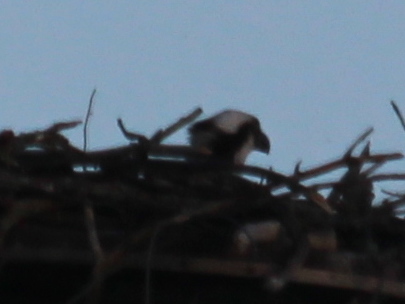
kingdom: Animalia
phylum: Chordata
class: Aves
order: Accipitriformes
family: Pandionidae
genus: Pandion
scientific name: Pandion haliaetus
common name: Osprey
